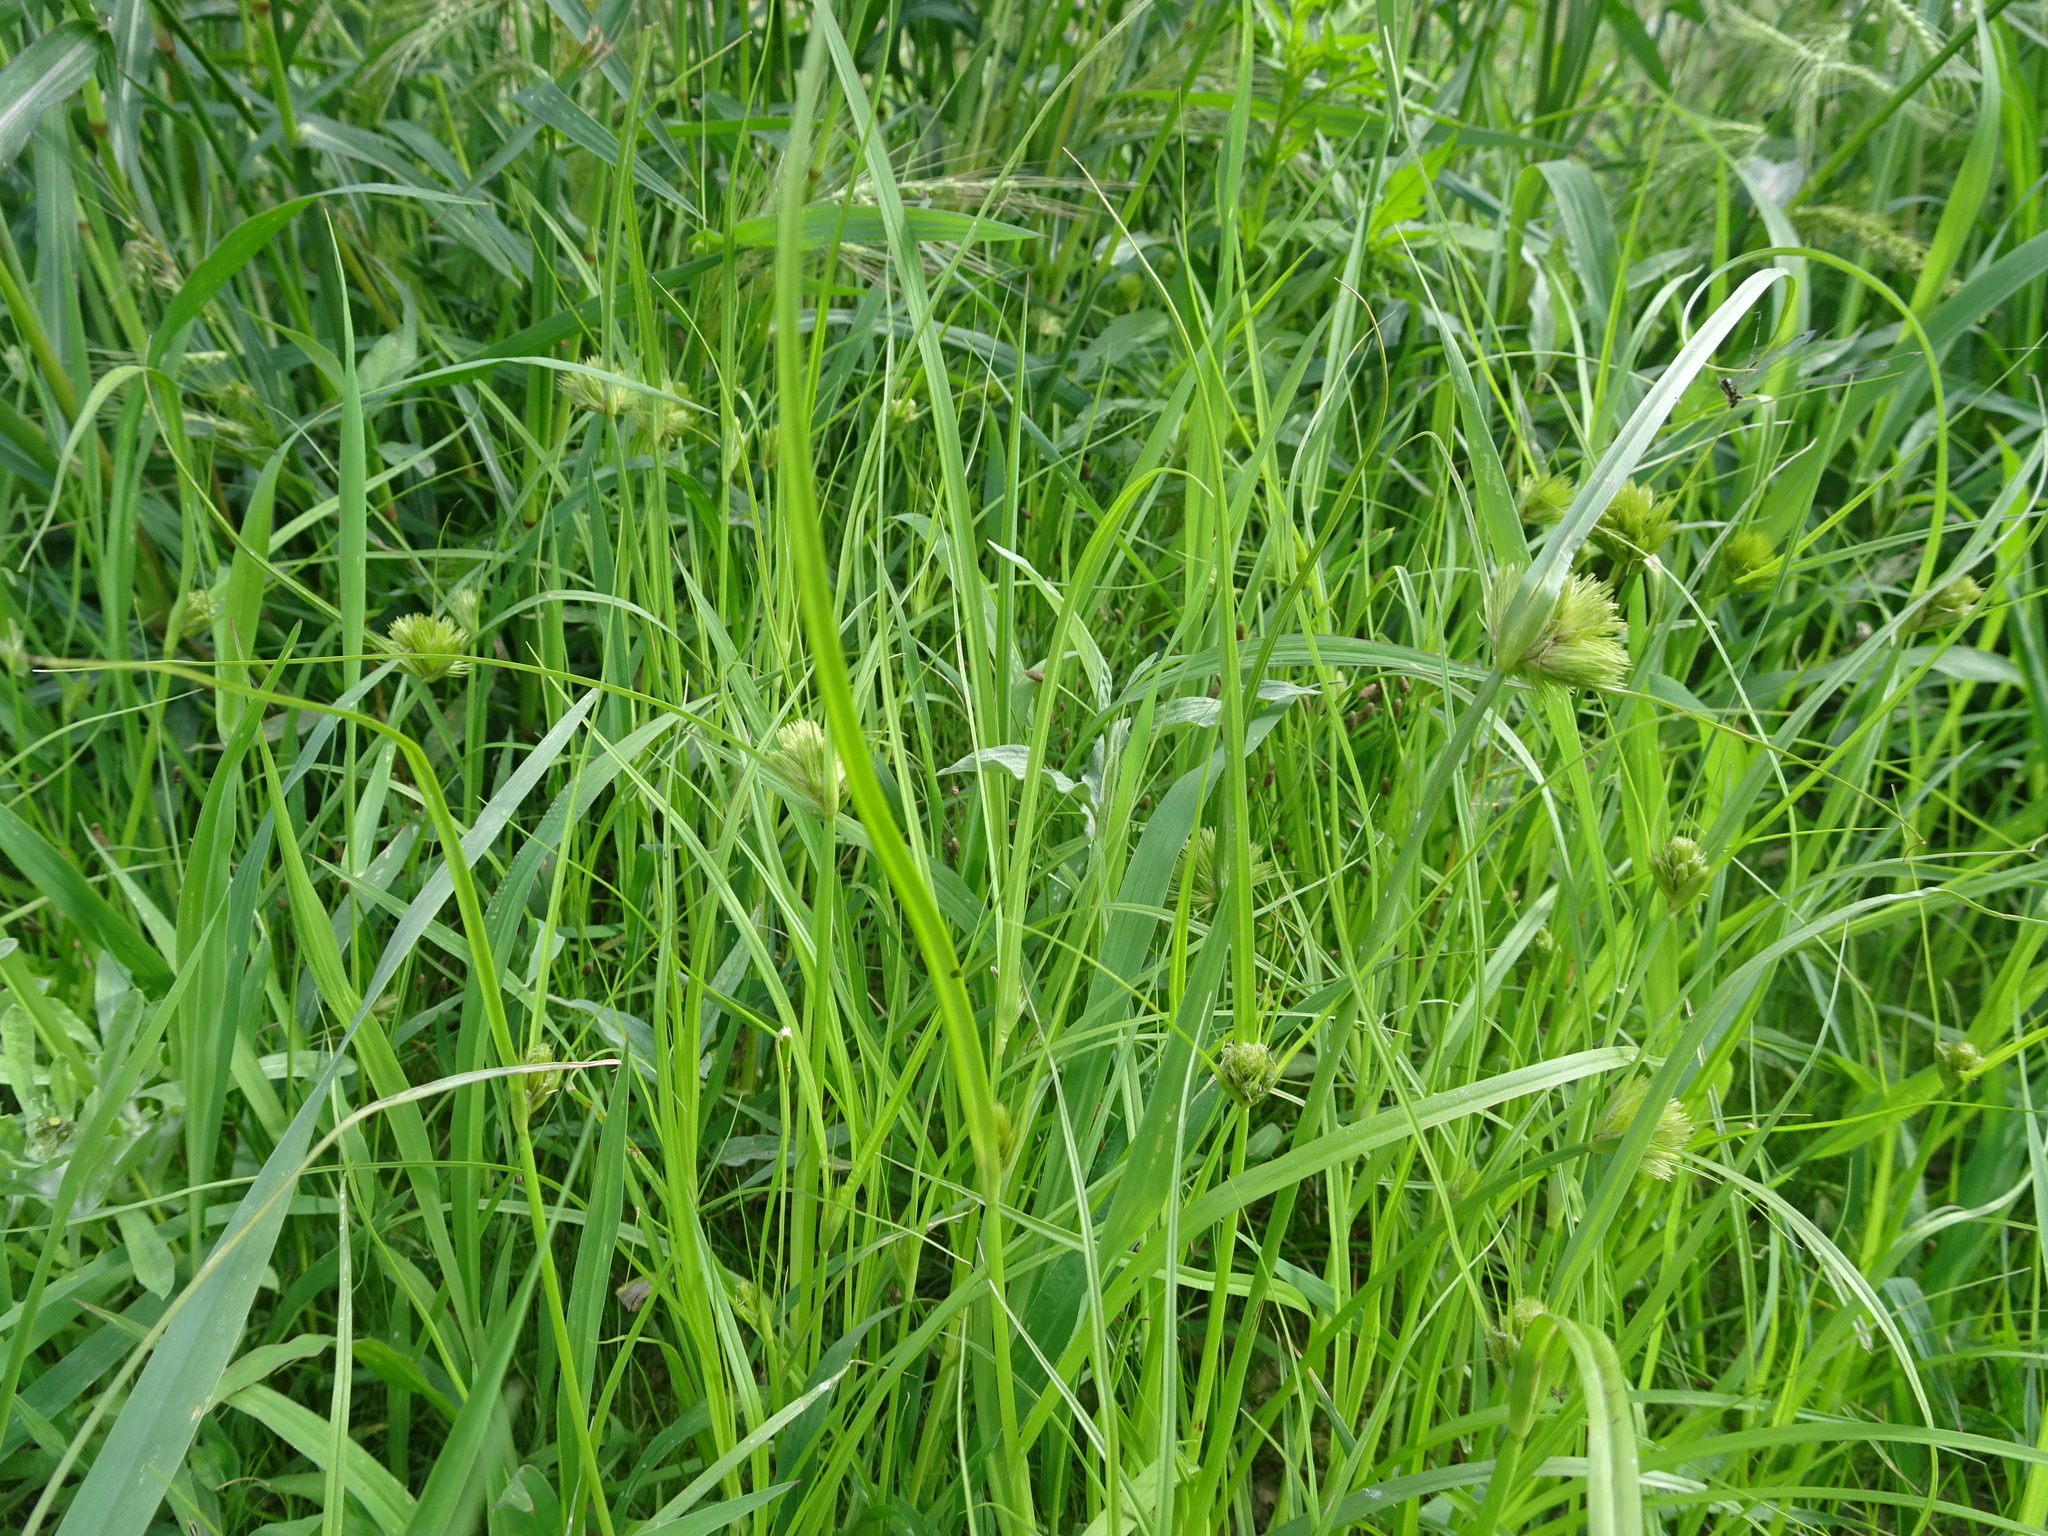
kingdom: Plantae
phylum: Tracheophyta
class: Liliopsida
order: Poales
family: Cyperaceae
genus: Carex
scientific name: Carex bohemica
